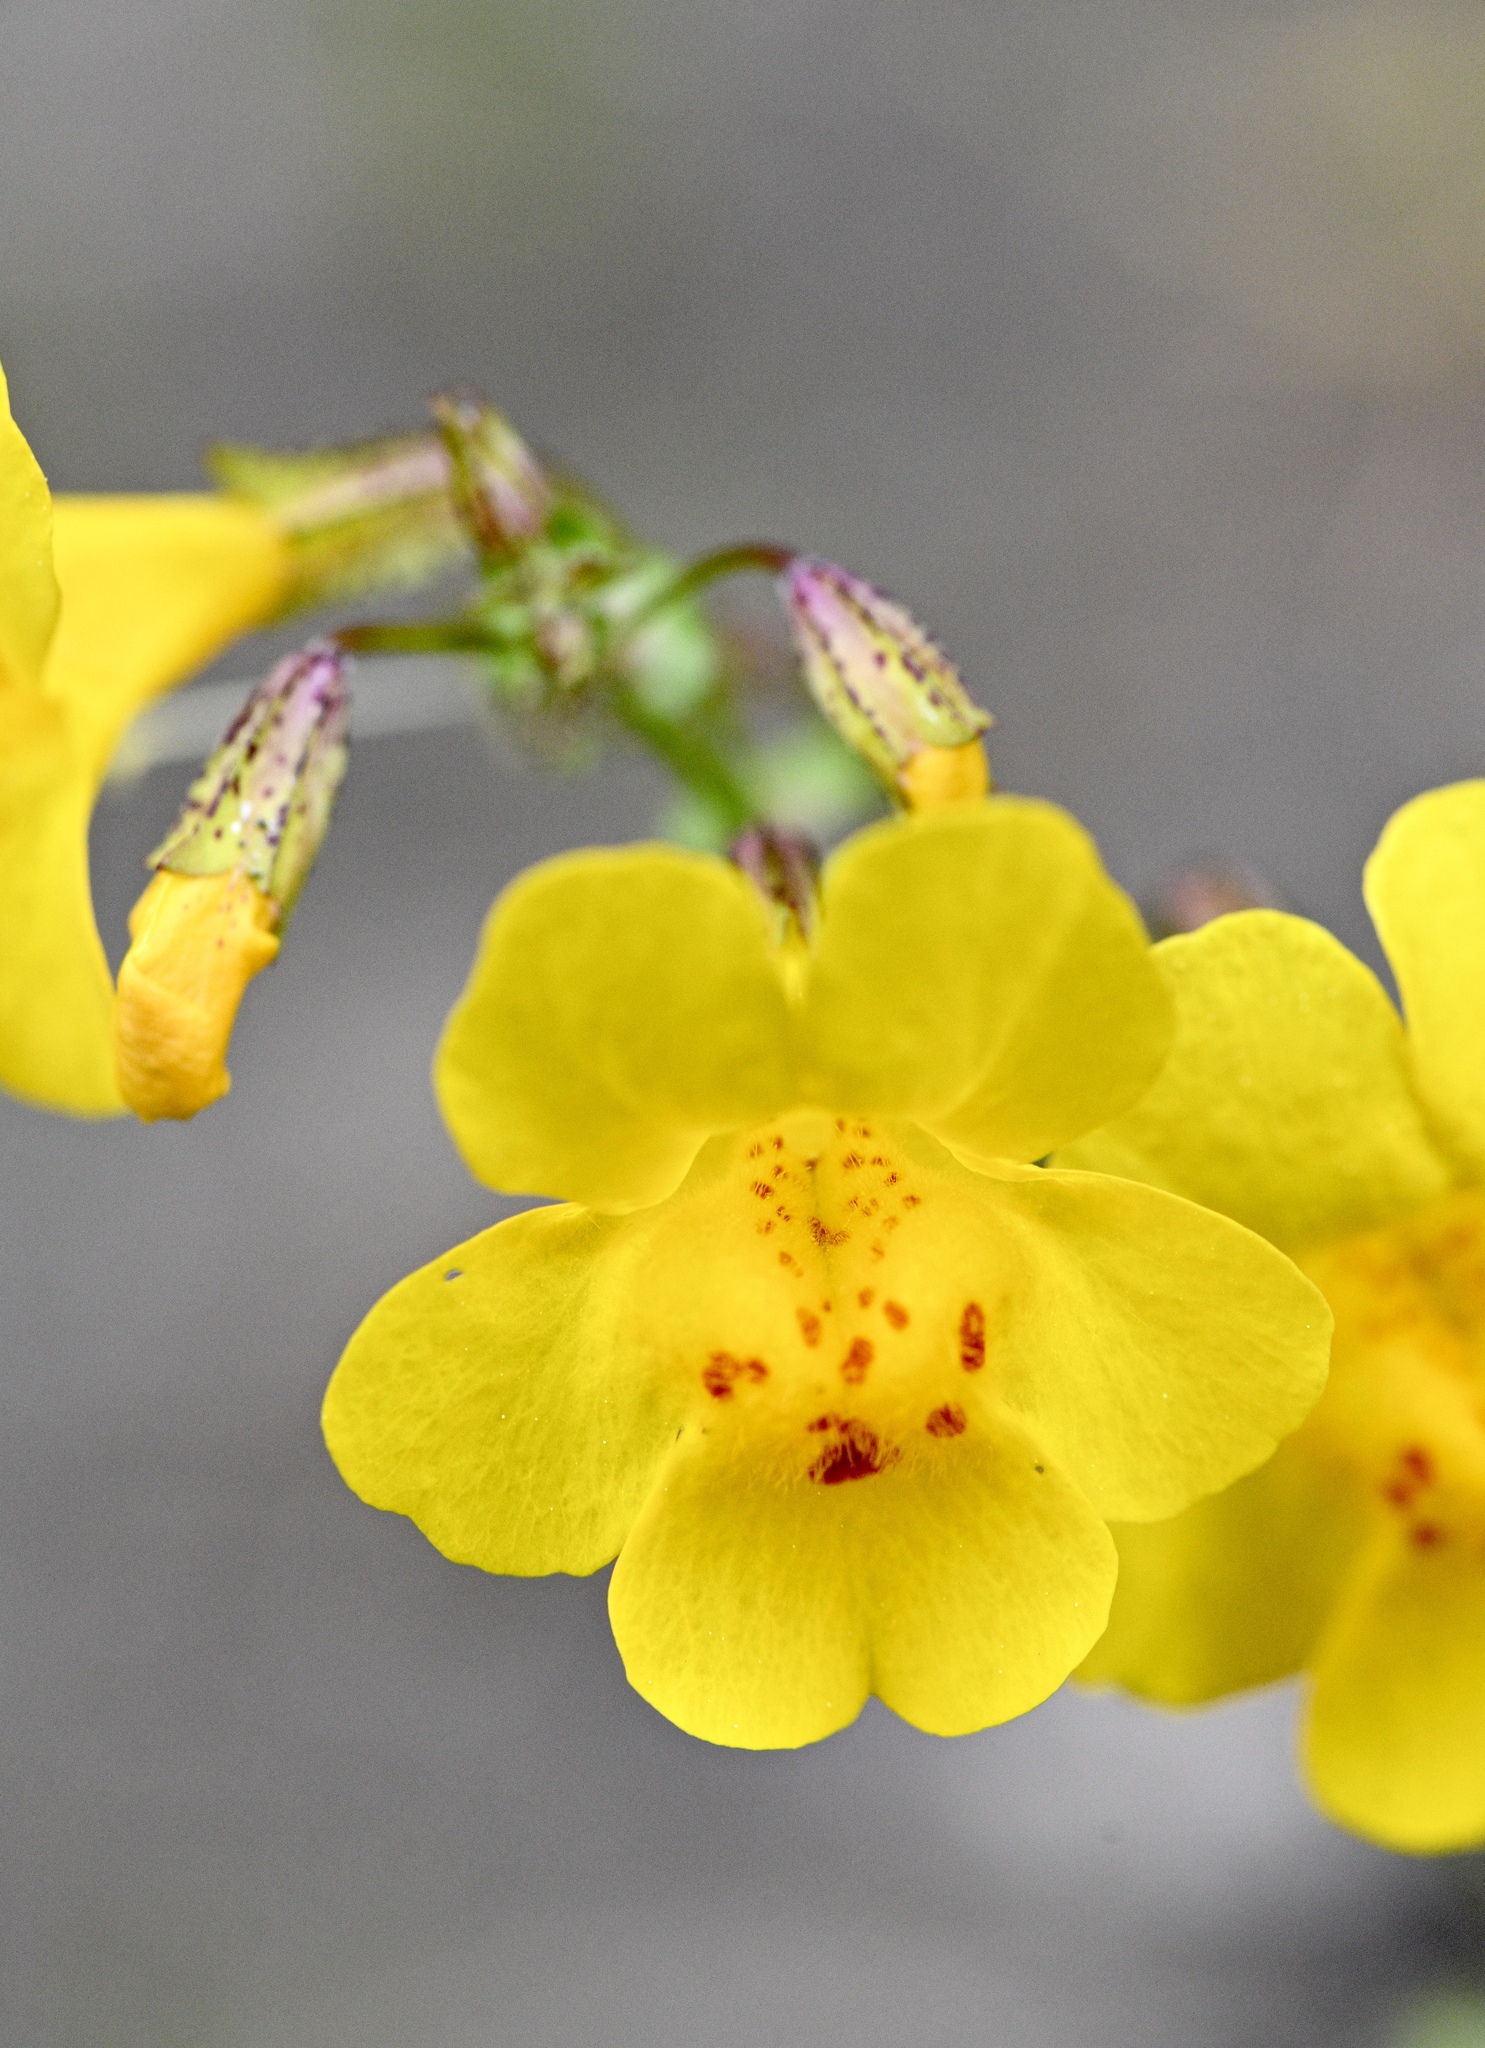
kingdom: Plantae
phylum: Tracheophyta
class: Magnoliopsida
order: Lamiales
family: Phrymaceae
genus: Erythranthe
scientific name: Erythranthe guttata
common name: Monkeyflower
